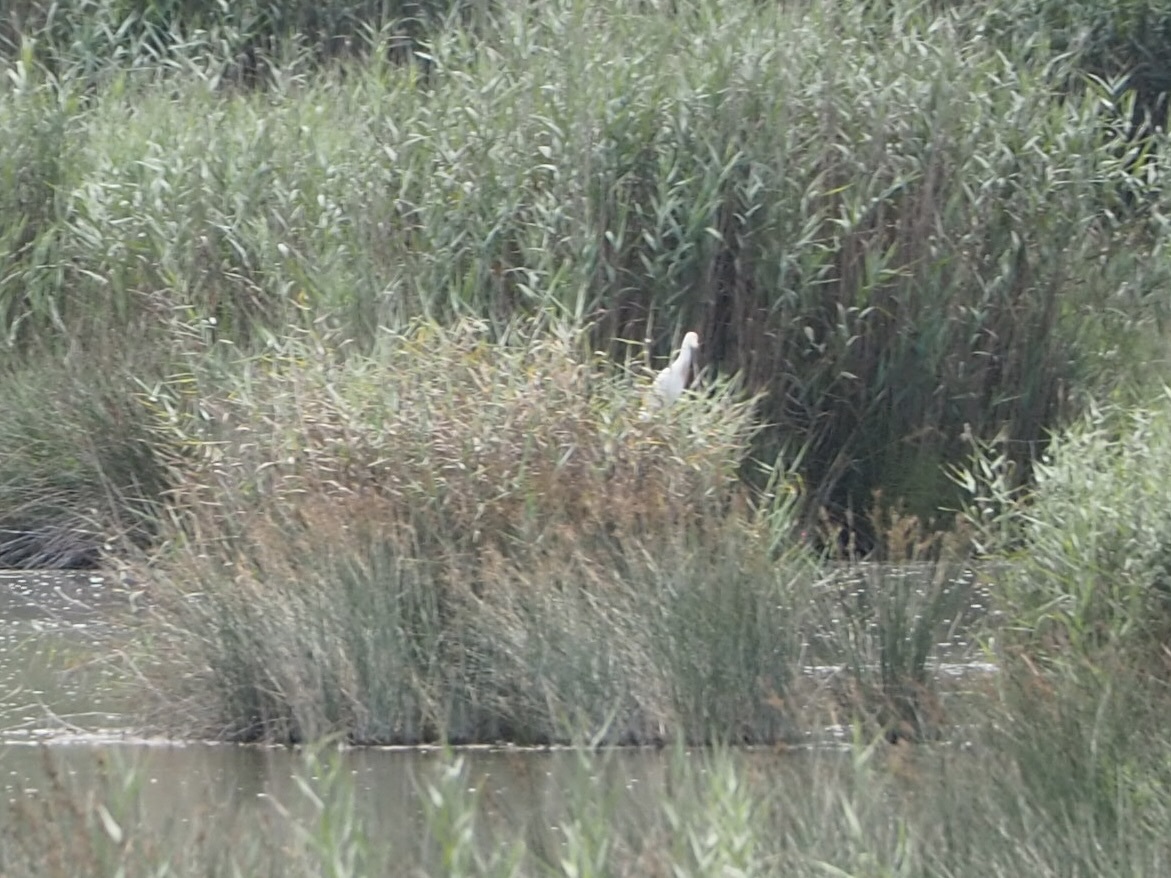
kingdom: Animalia
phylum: Chordata
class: Aves
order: Pelecaniformes
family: Ardeidae
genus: Bubulcus
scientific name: Bubulcus ibis
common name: Cattle egret
